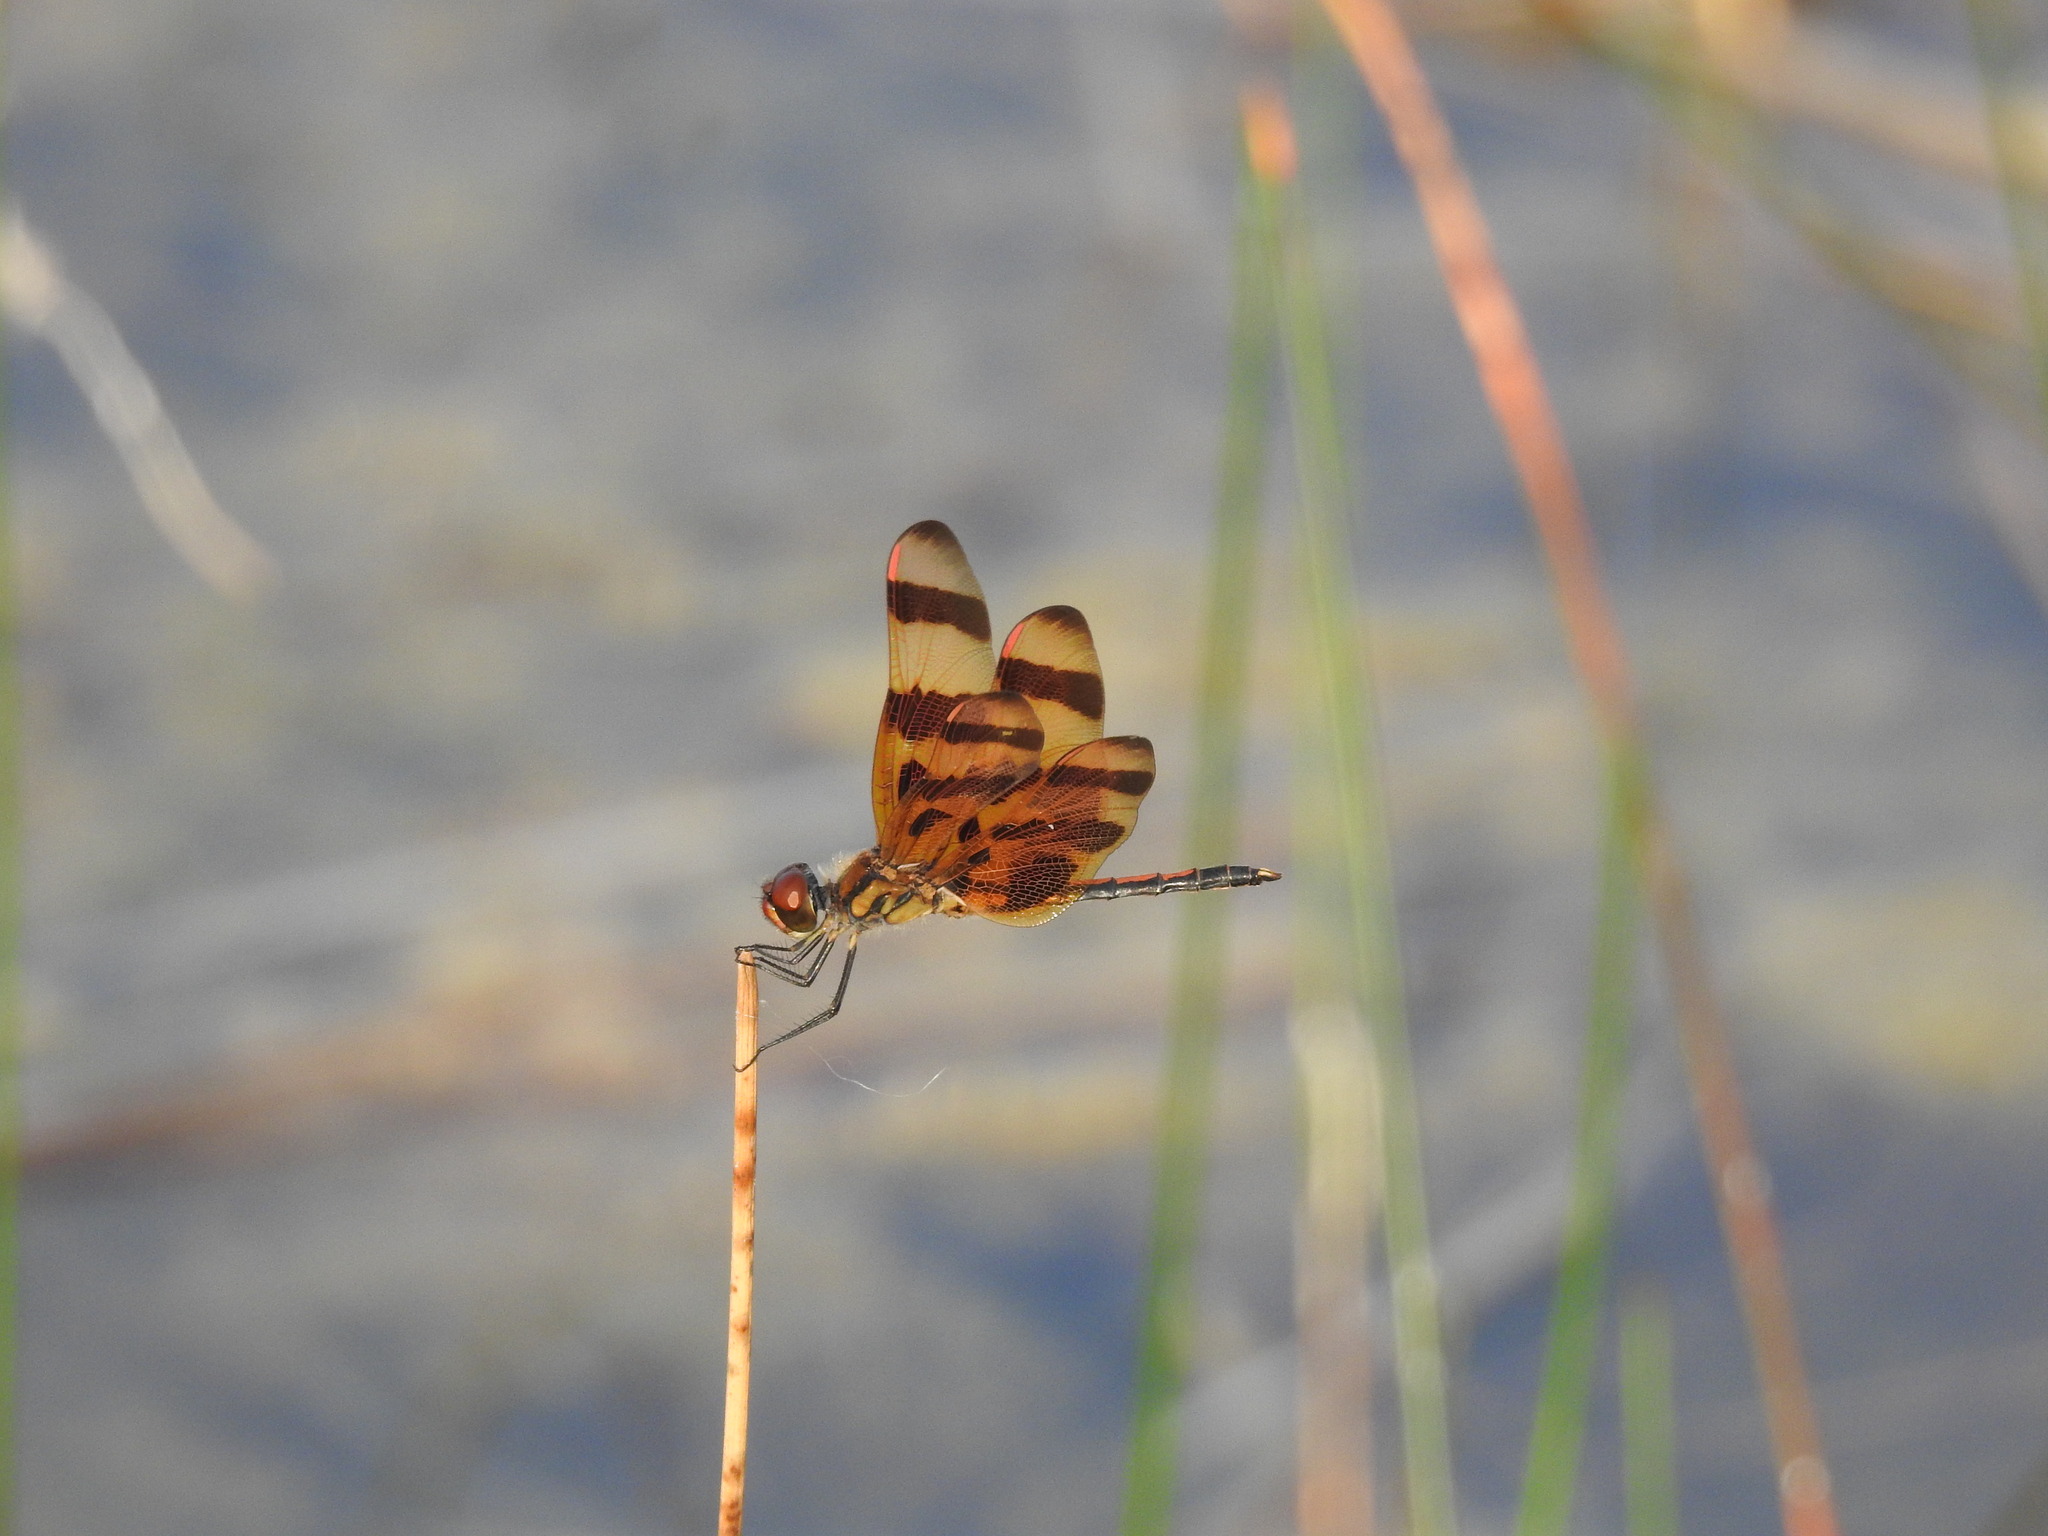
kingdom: Animalia
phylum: Arthropoda
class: Insecta
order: Odonata
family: Libellulidae
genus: Celithemis
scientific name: Celithemis eponina
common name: Halloween pennant
